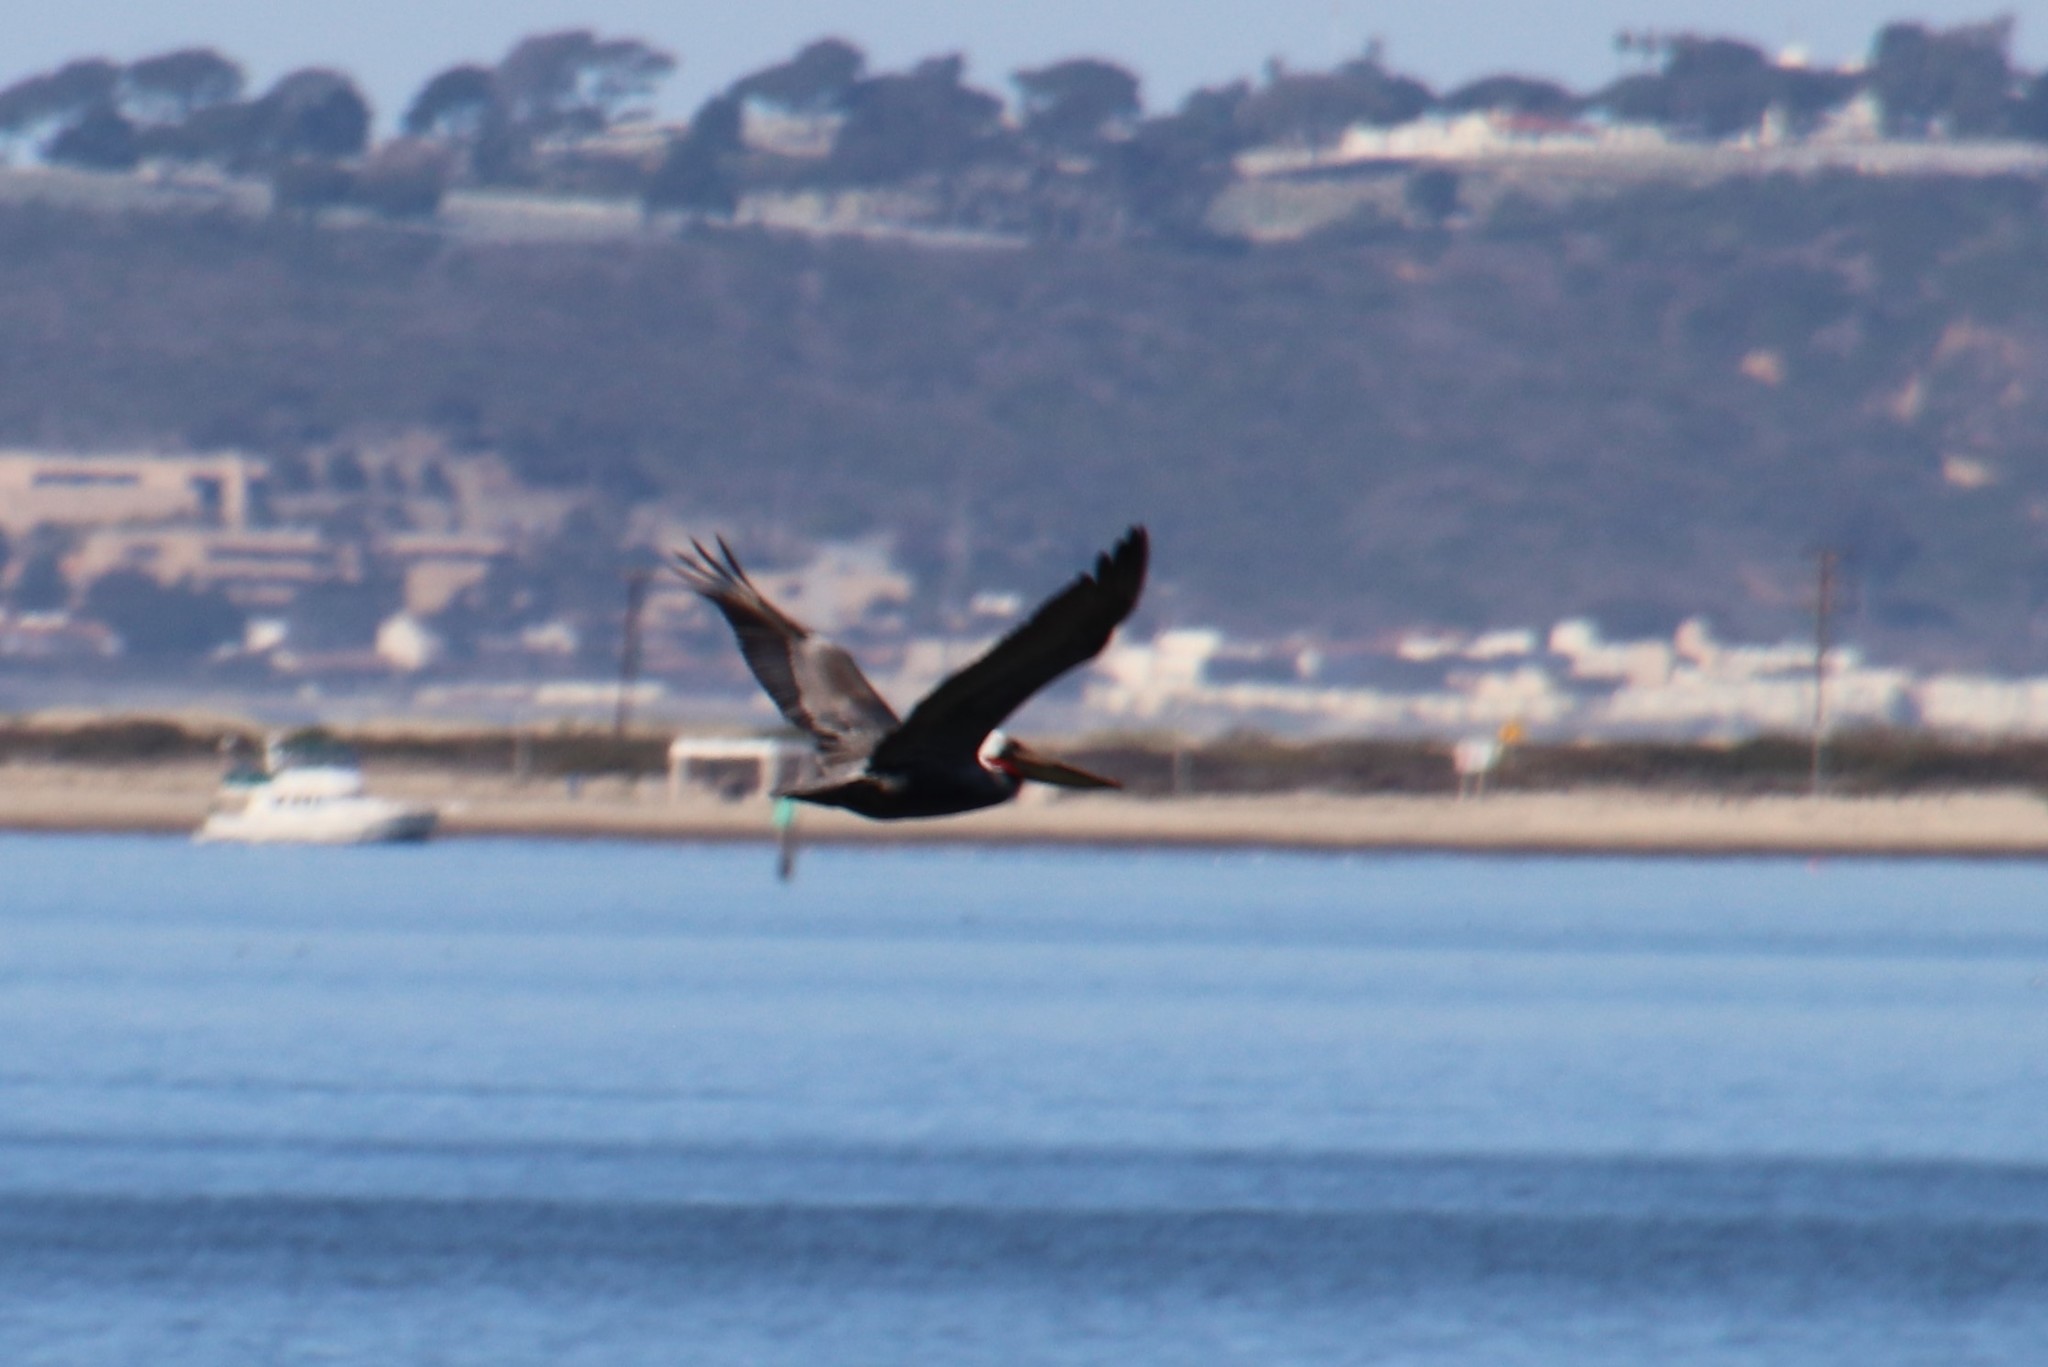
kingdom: Animalia
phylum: Chordata
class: Aves
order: Pelecaniformes
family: Pelecanidae
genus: Pelecanus
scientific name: Pelecanus occidentalis
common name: Brown pelican
